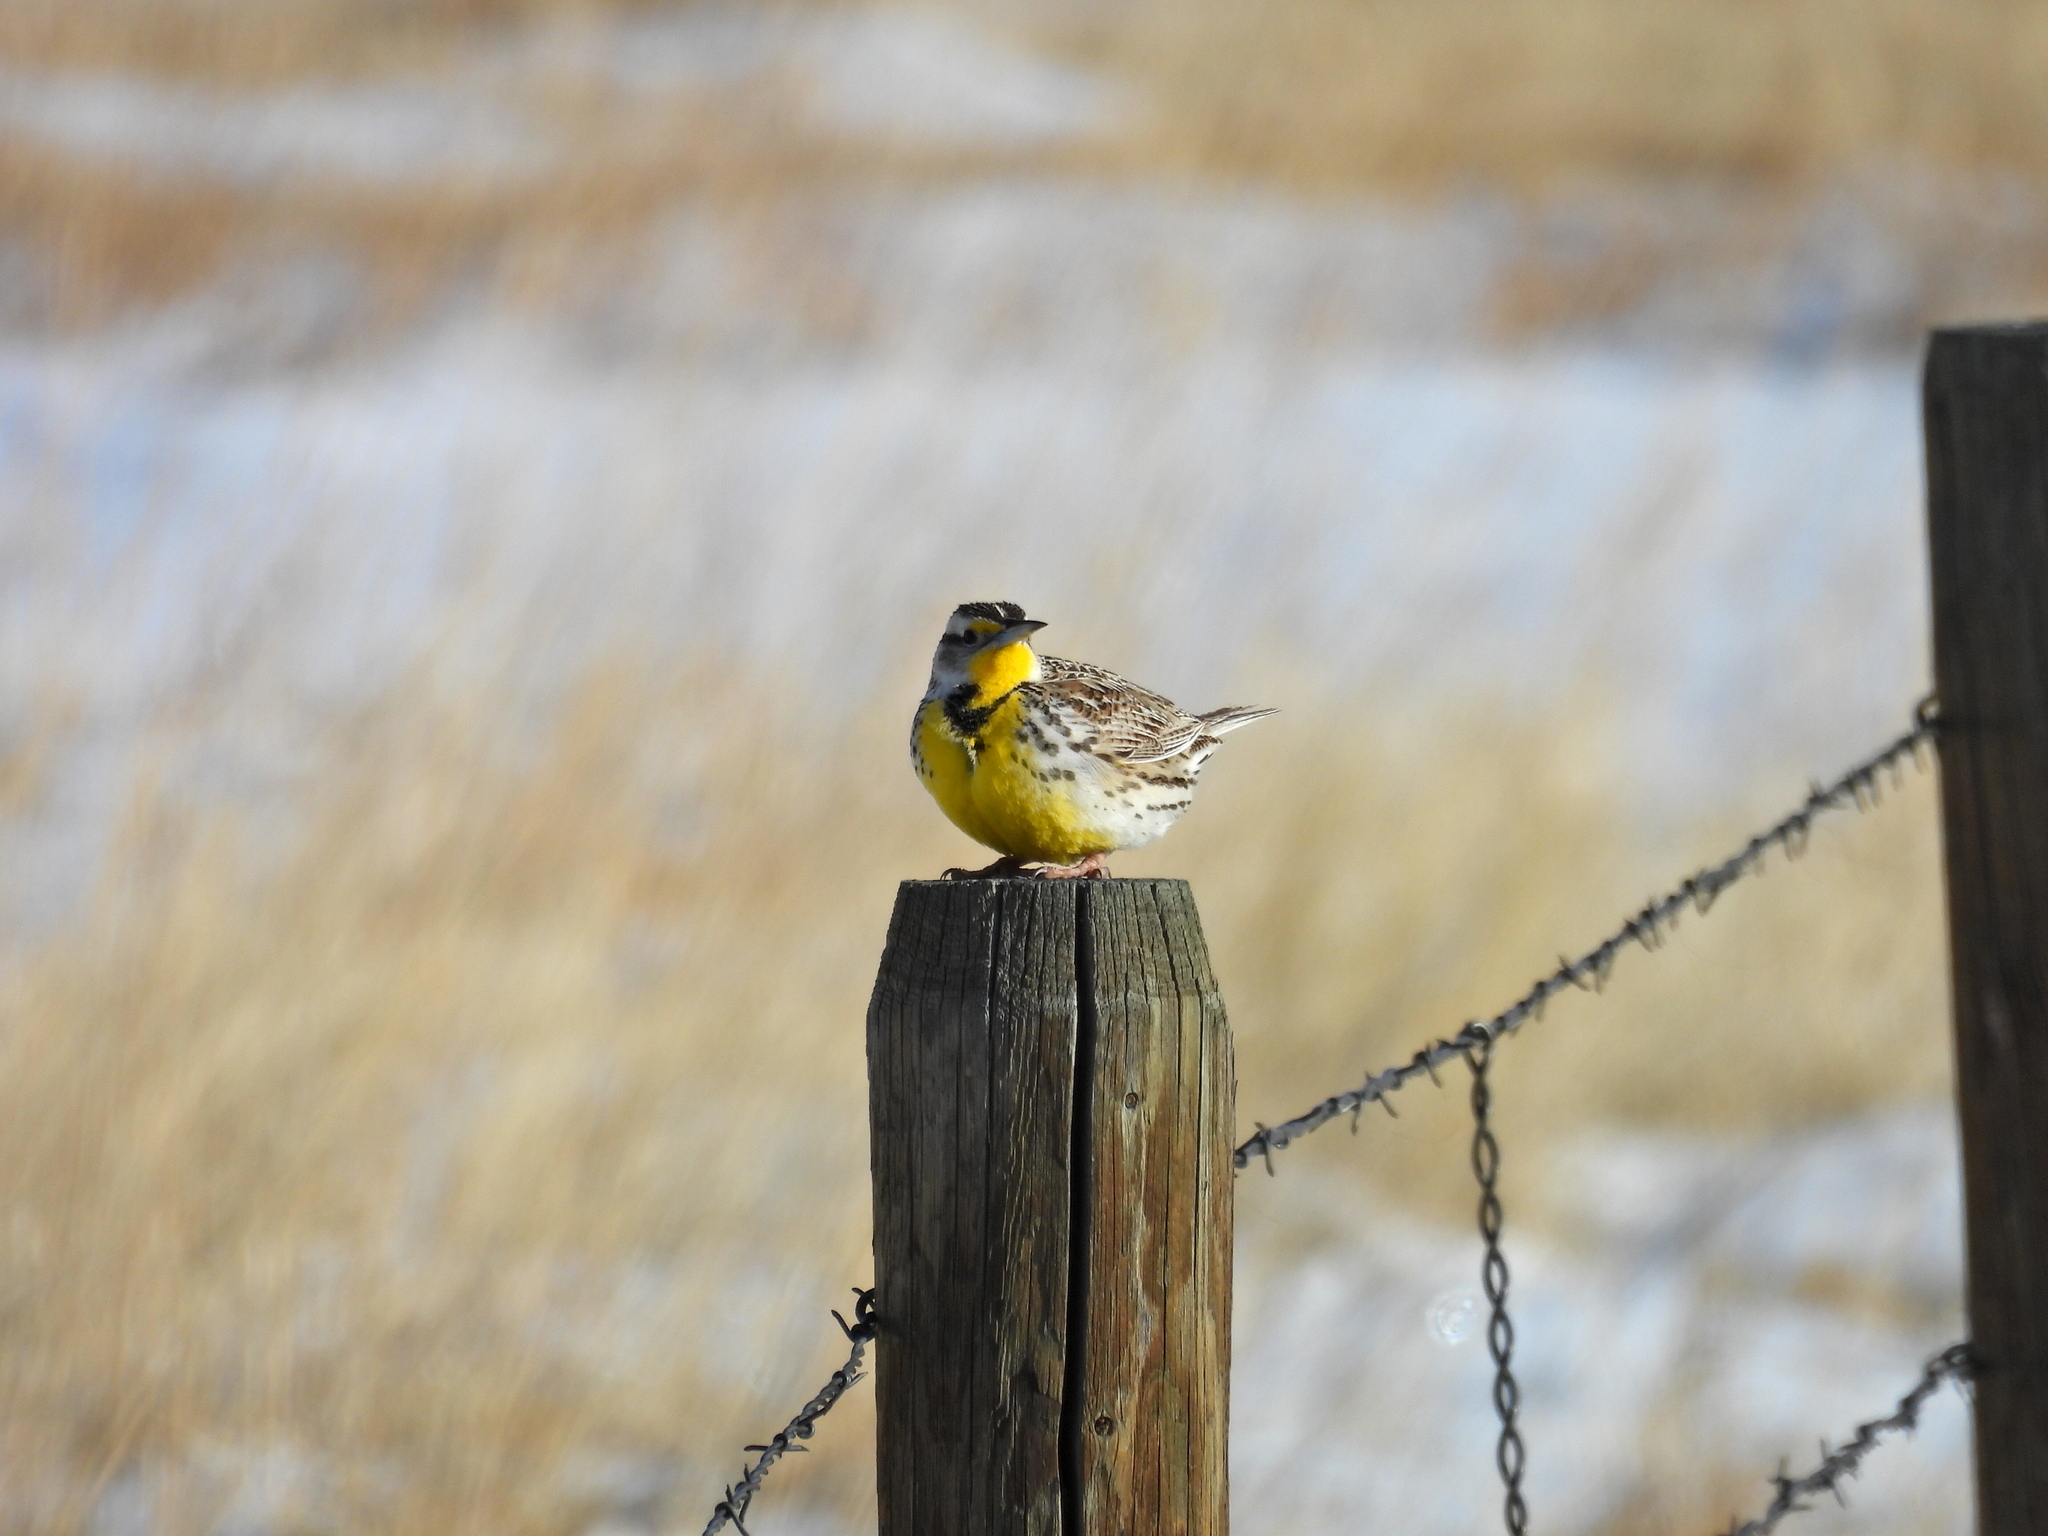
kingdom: Animalia
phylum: Chordata
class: Aves
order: Passeriformes
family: Icteridae
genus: Sturnella
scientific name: Sturnella neglecta
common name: Western meadowlark
